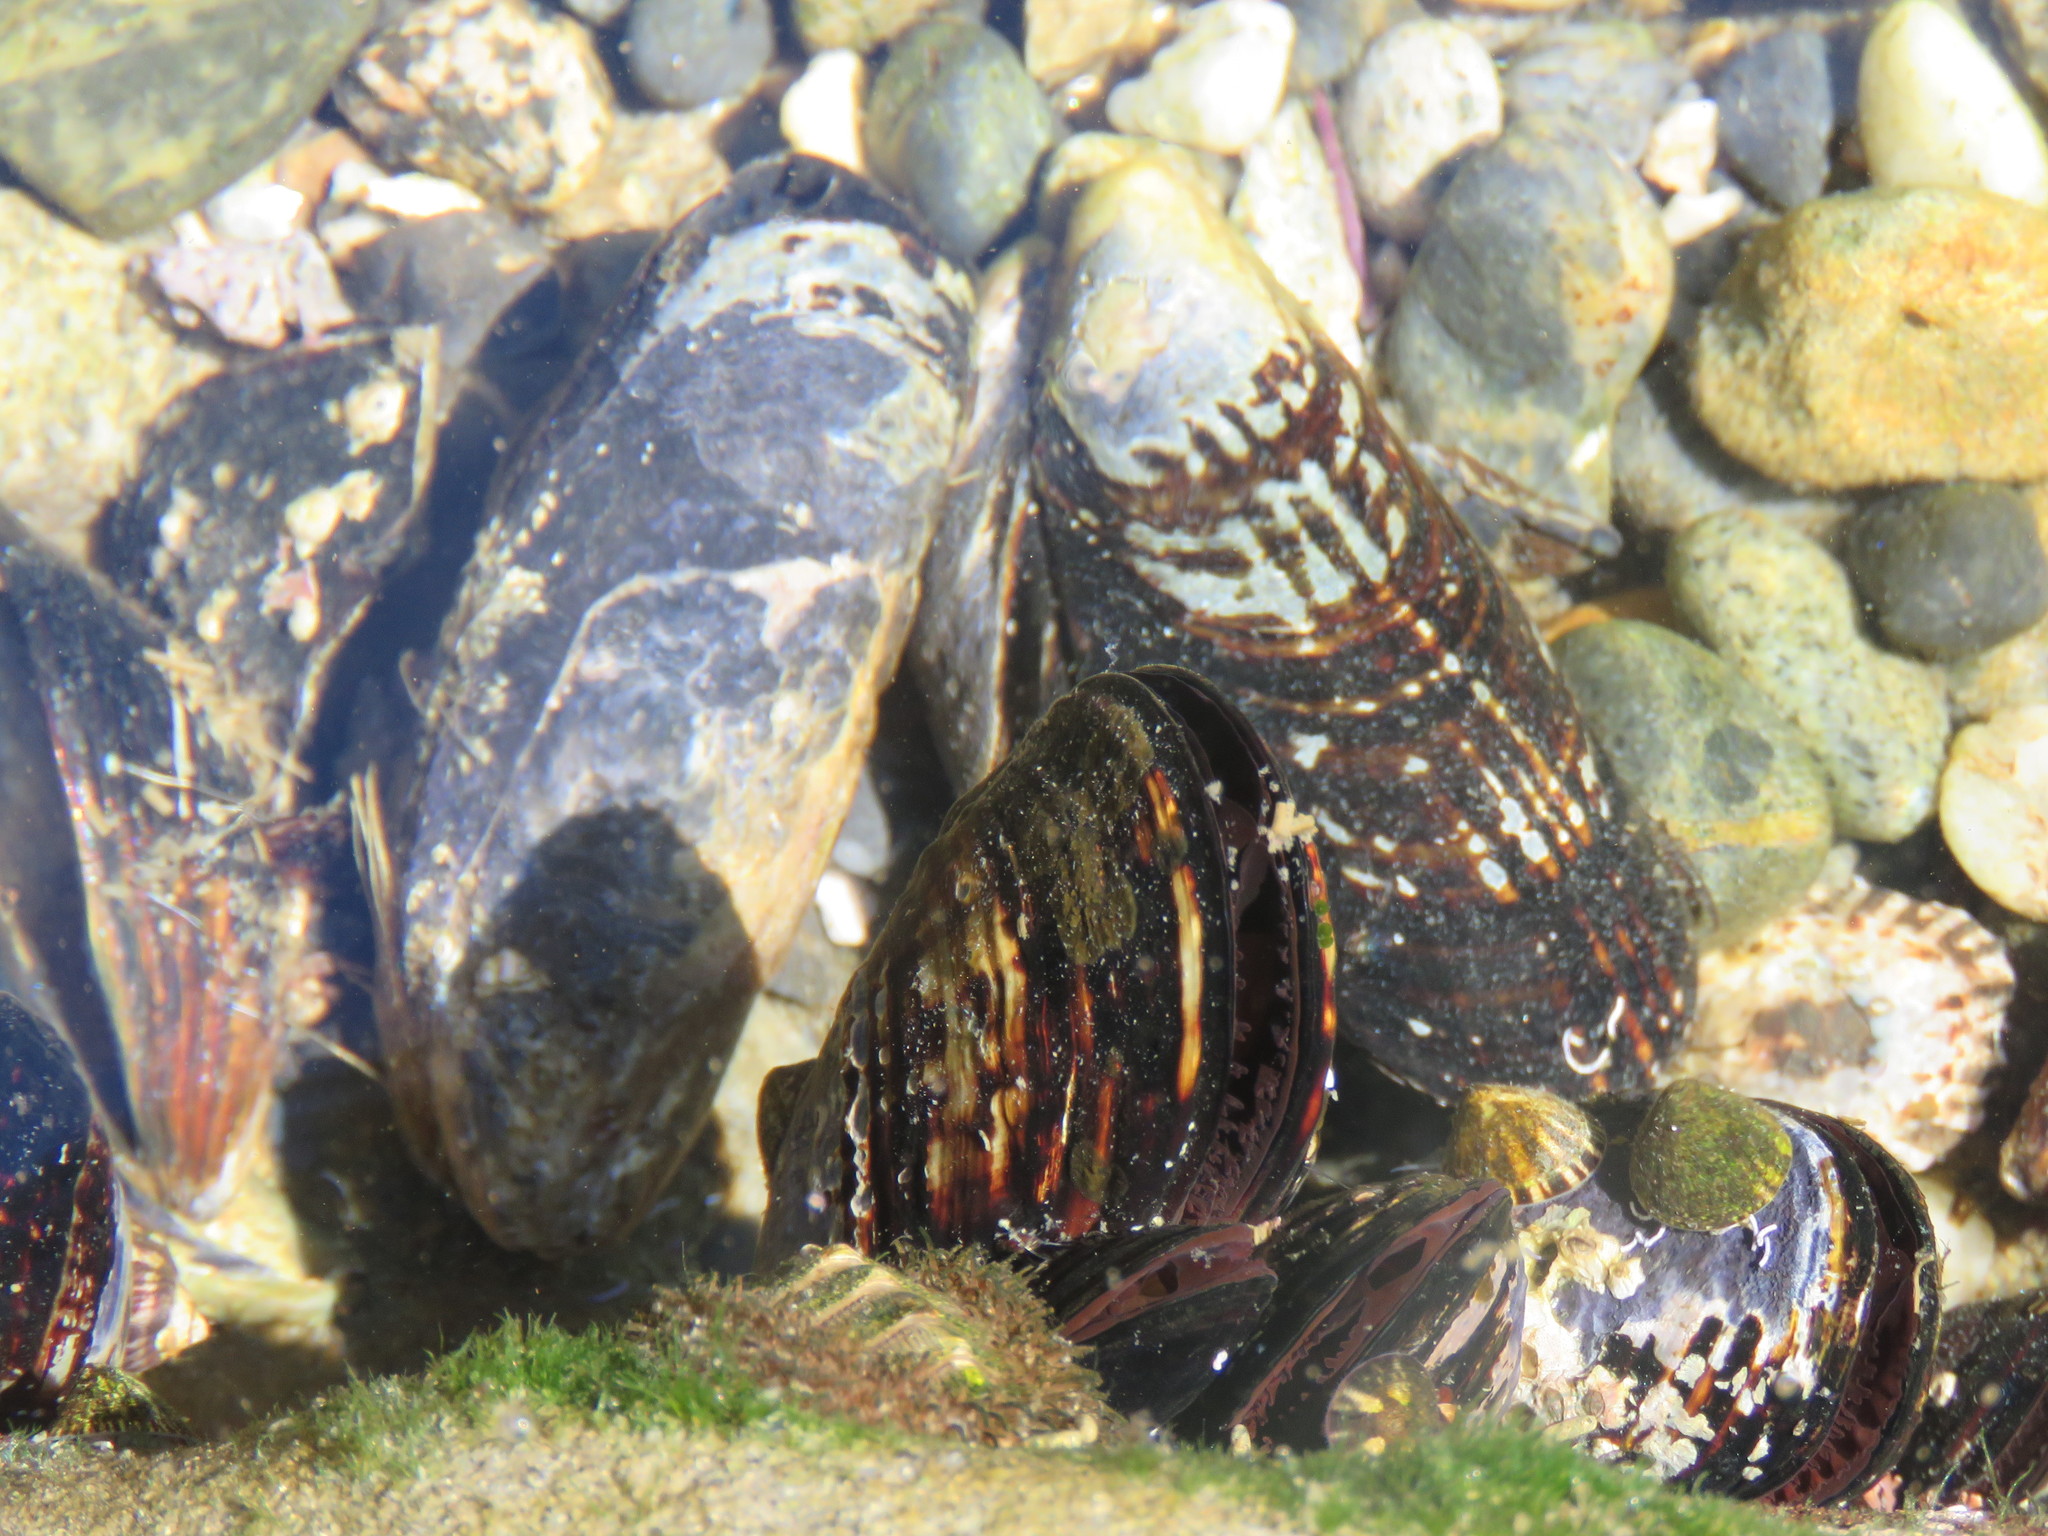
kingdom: Animalia
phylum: Mollusca
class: Bivalvia
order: Mytilida
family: Mytilidae
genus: Mytilus
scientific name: Mytilus californianus
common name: California mussel
